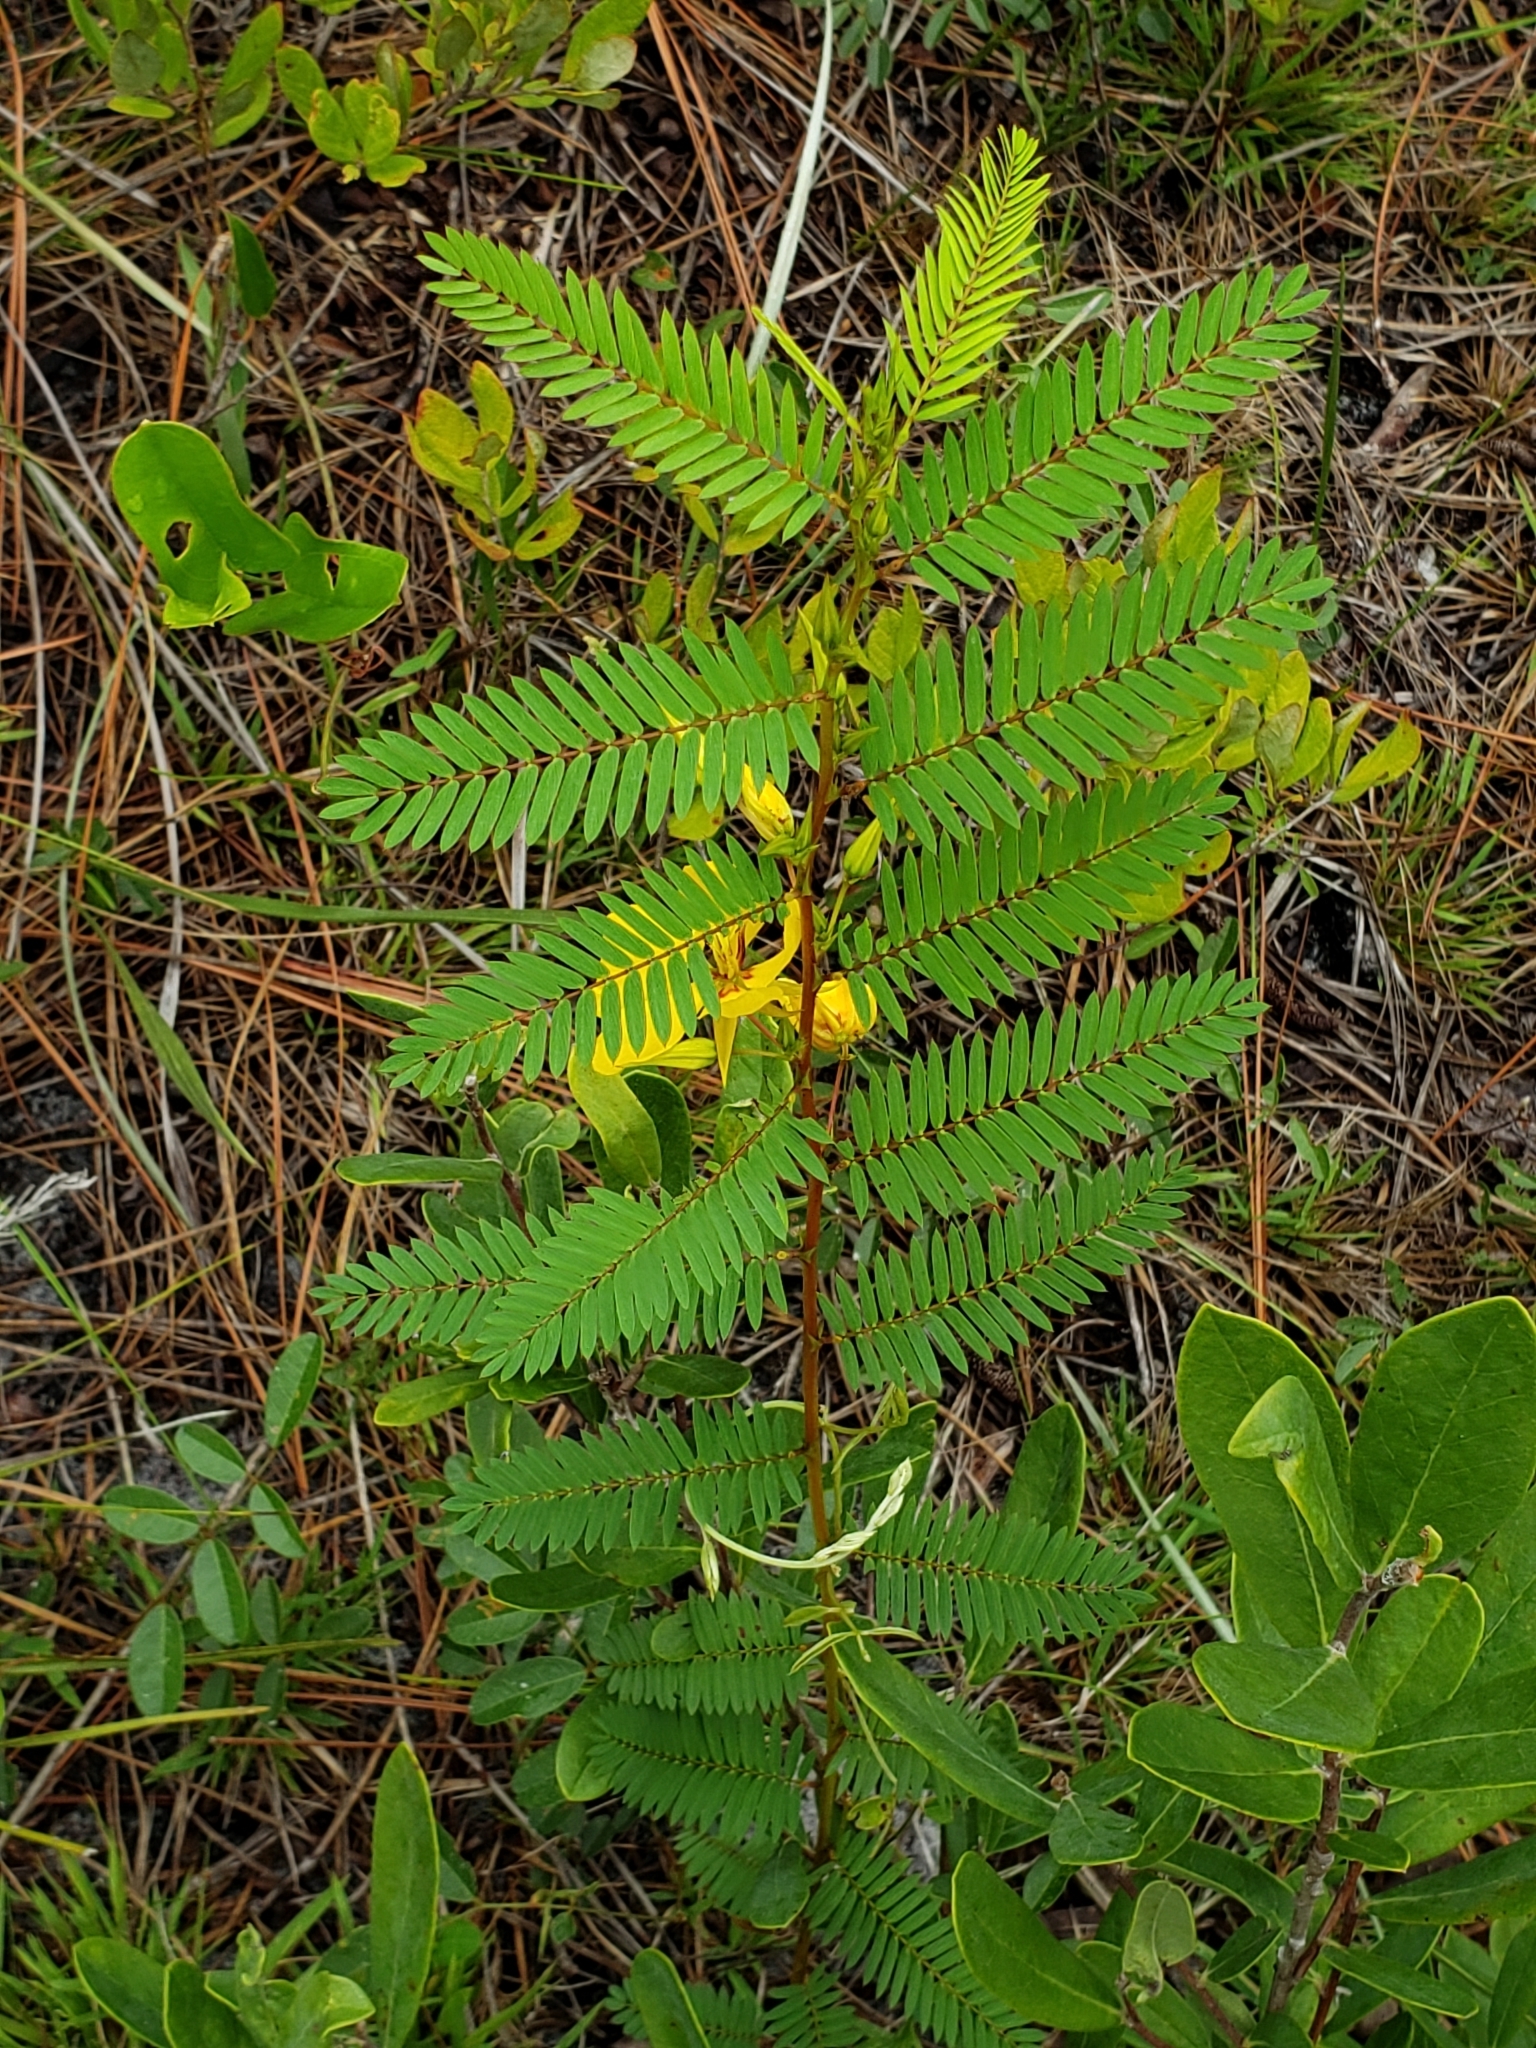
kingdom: Plantae
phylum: Tracheophyta
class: Magnoliopsida
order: Fabales
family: Fabaceae
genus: Chamaecrista
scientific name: Chamaecrista fasciculata
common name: Golden cassia
